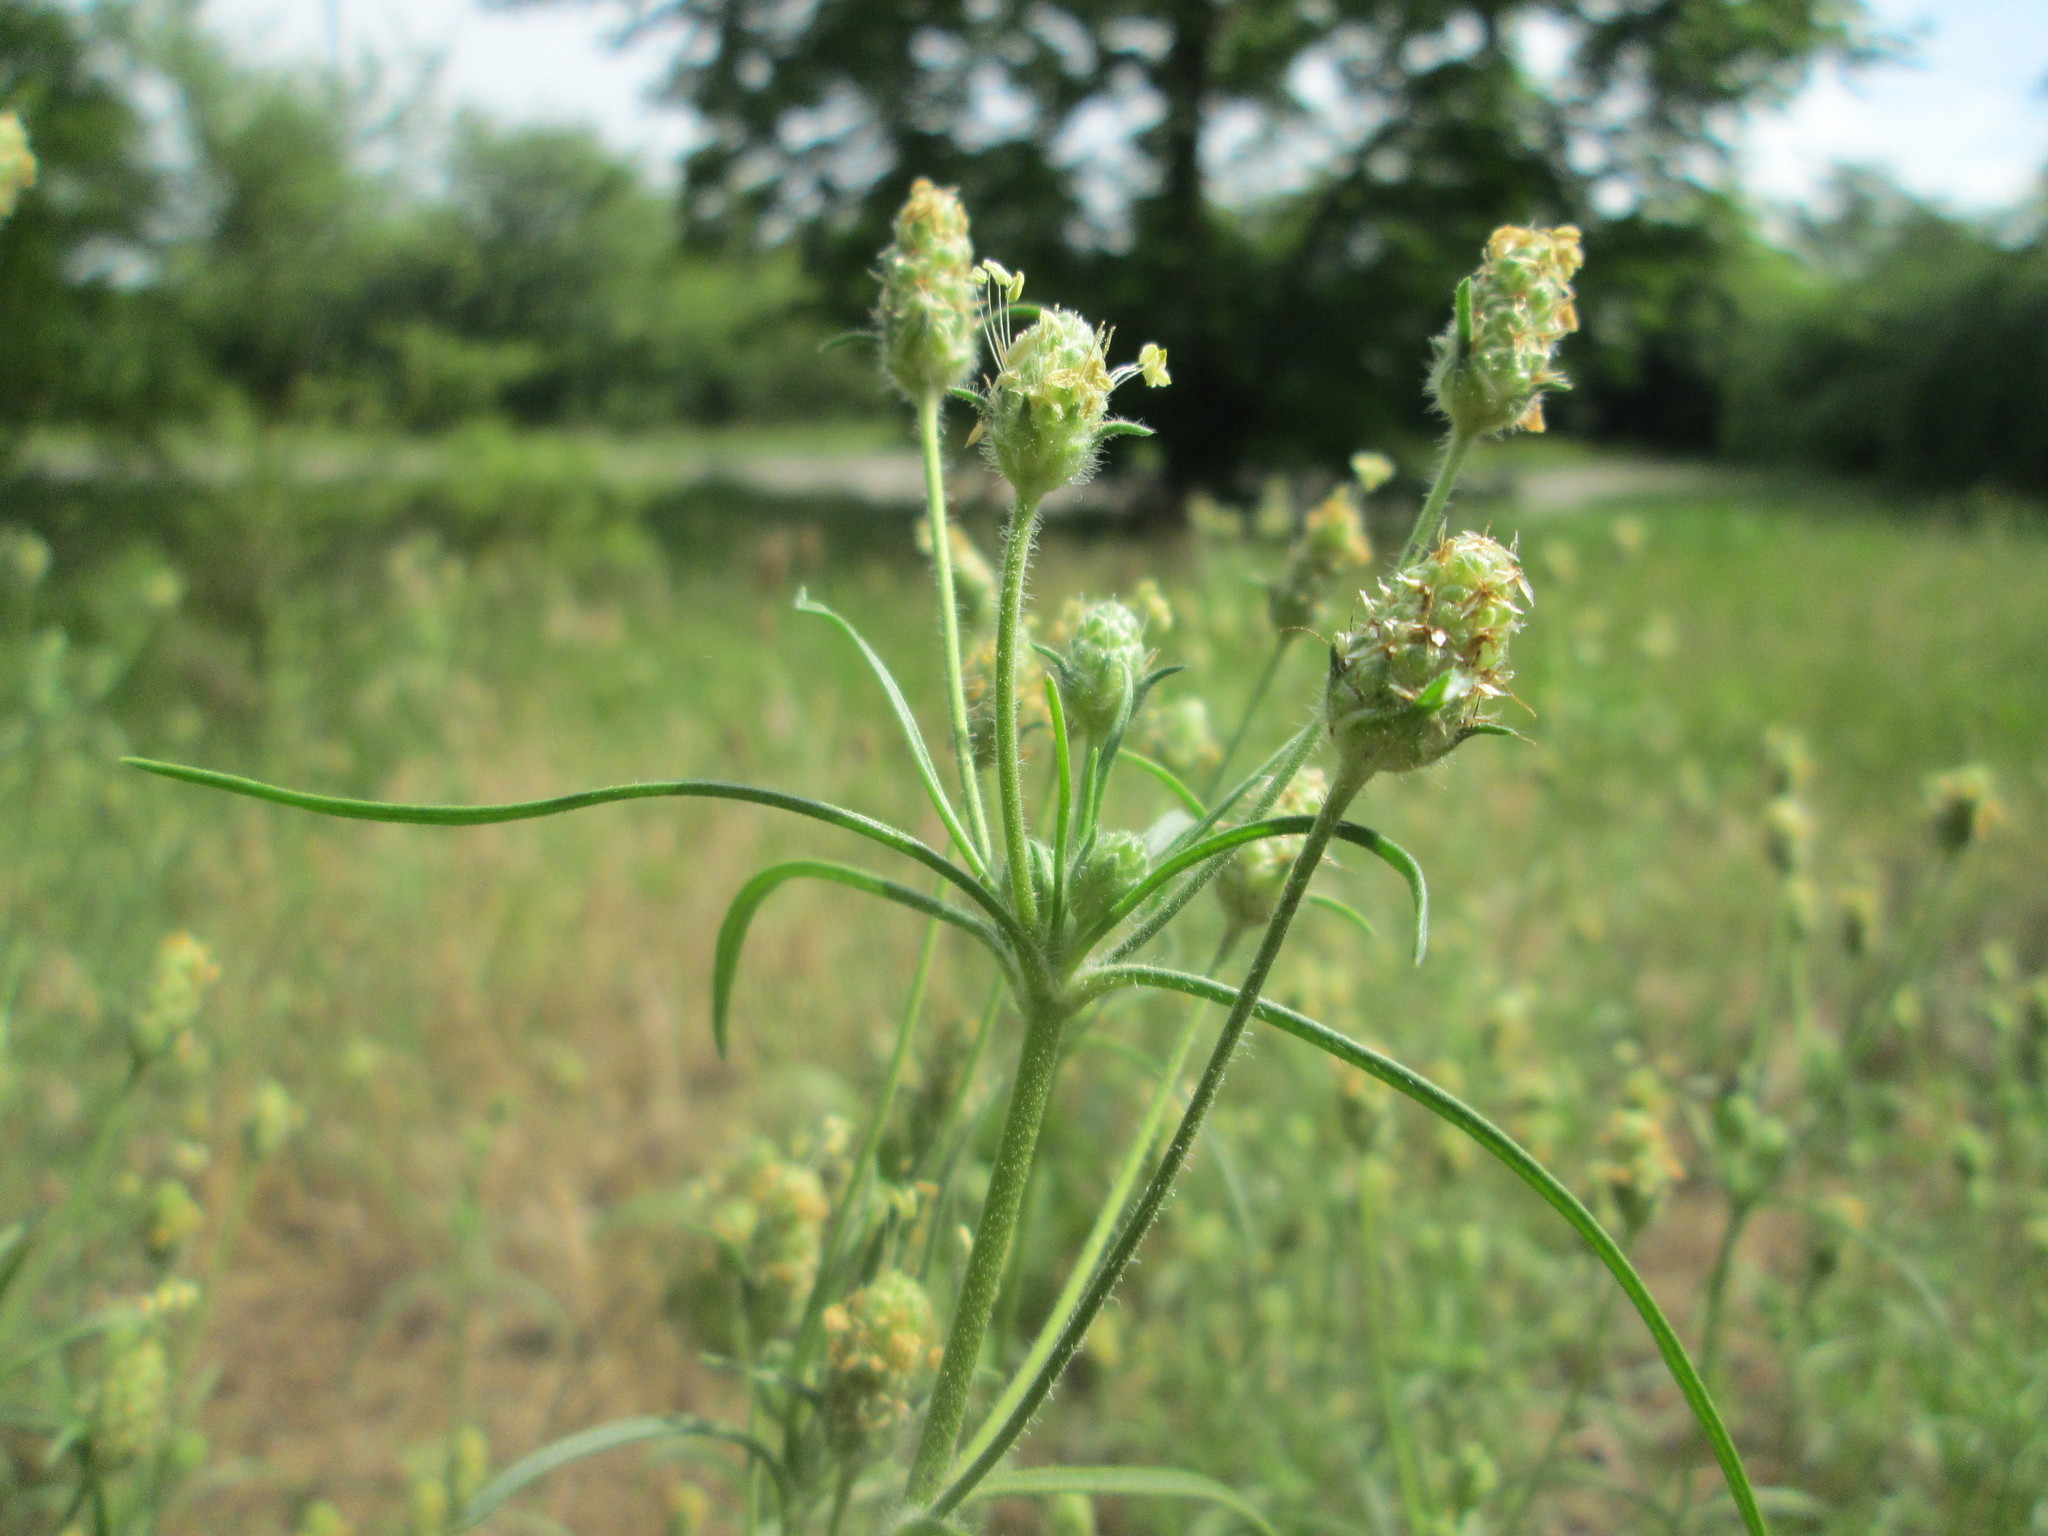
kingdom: Plantae
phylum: Tracheophyta
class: Magnoliopsida
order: Lamiales
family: Plantaginaceae
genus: Plantago
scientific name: Plantago arenaria
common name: Branched plantain
